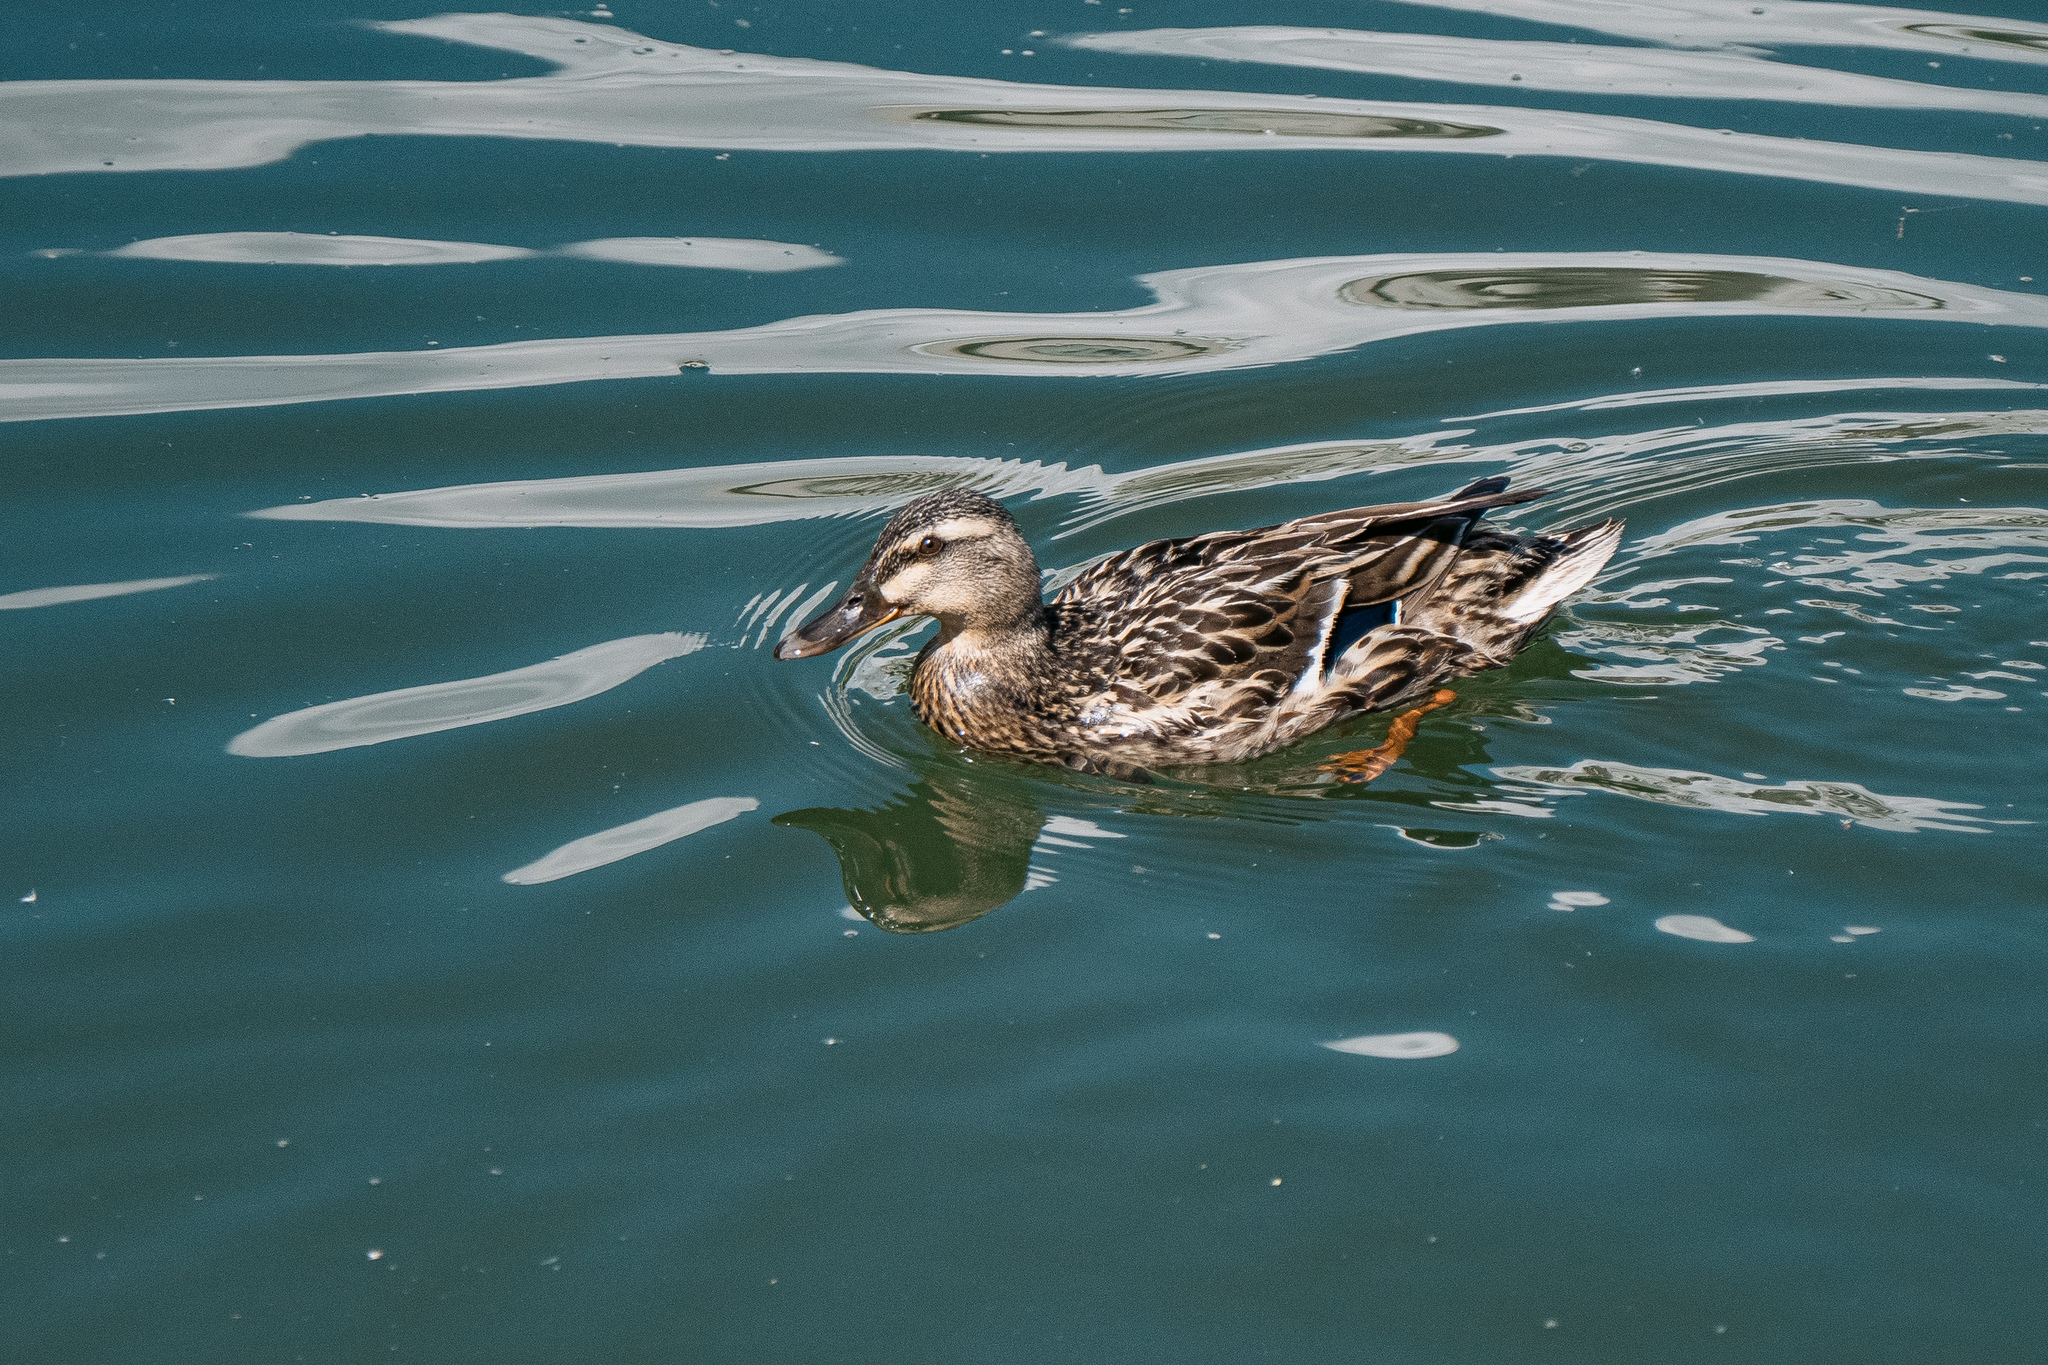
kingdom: Animalia
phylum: Chordata
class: Aves
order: Anseriformes
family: Anatidae
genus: Anas
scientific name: Anas platyrhynchos
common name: Mallard
